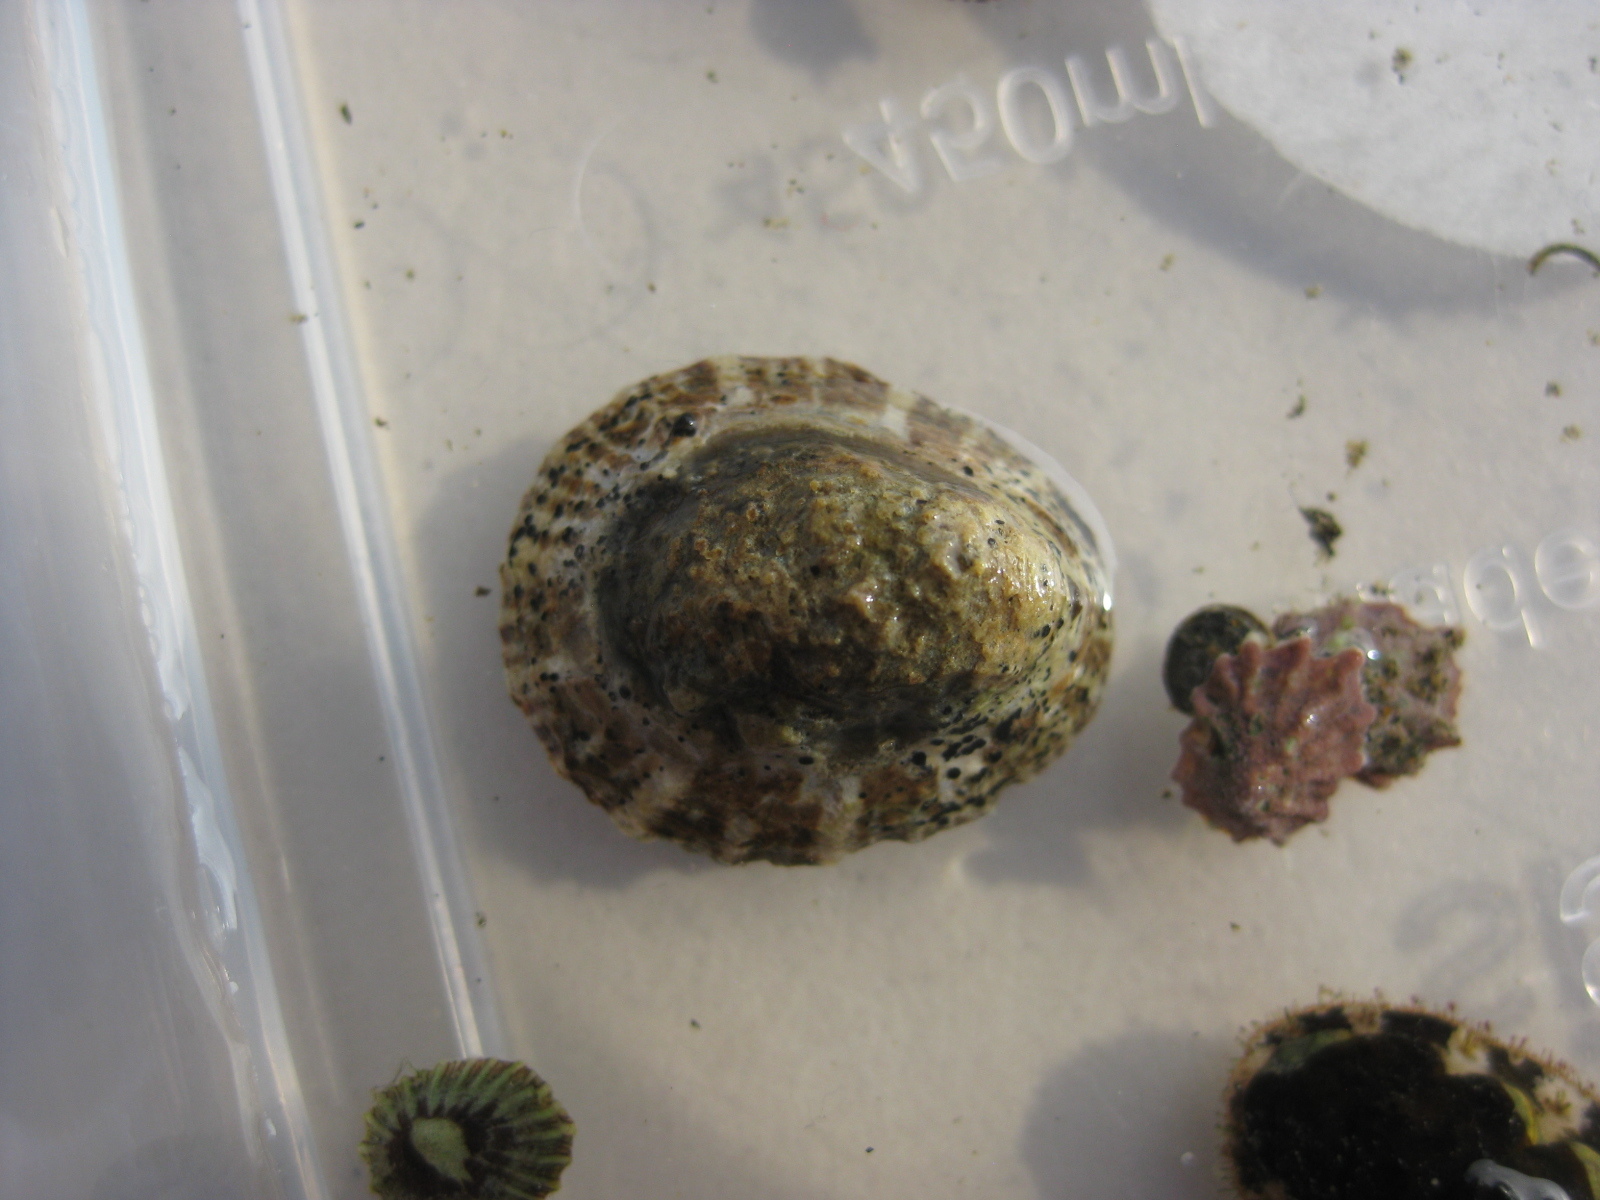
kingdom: Animalia
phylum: Mollusca
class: Gastropoda
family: Nacellidae
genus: Cellana
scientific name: Cellana ornata
